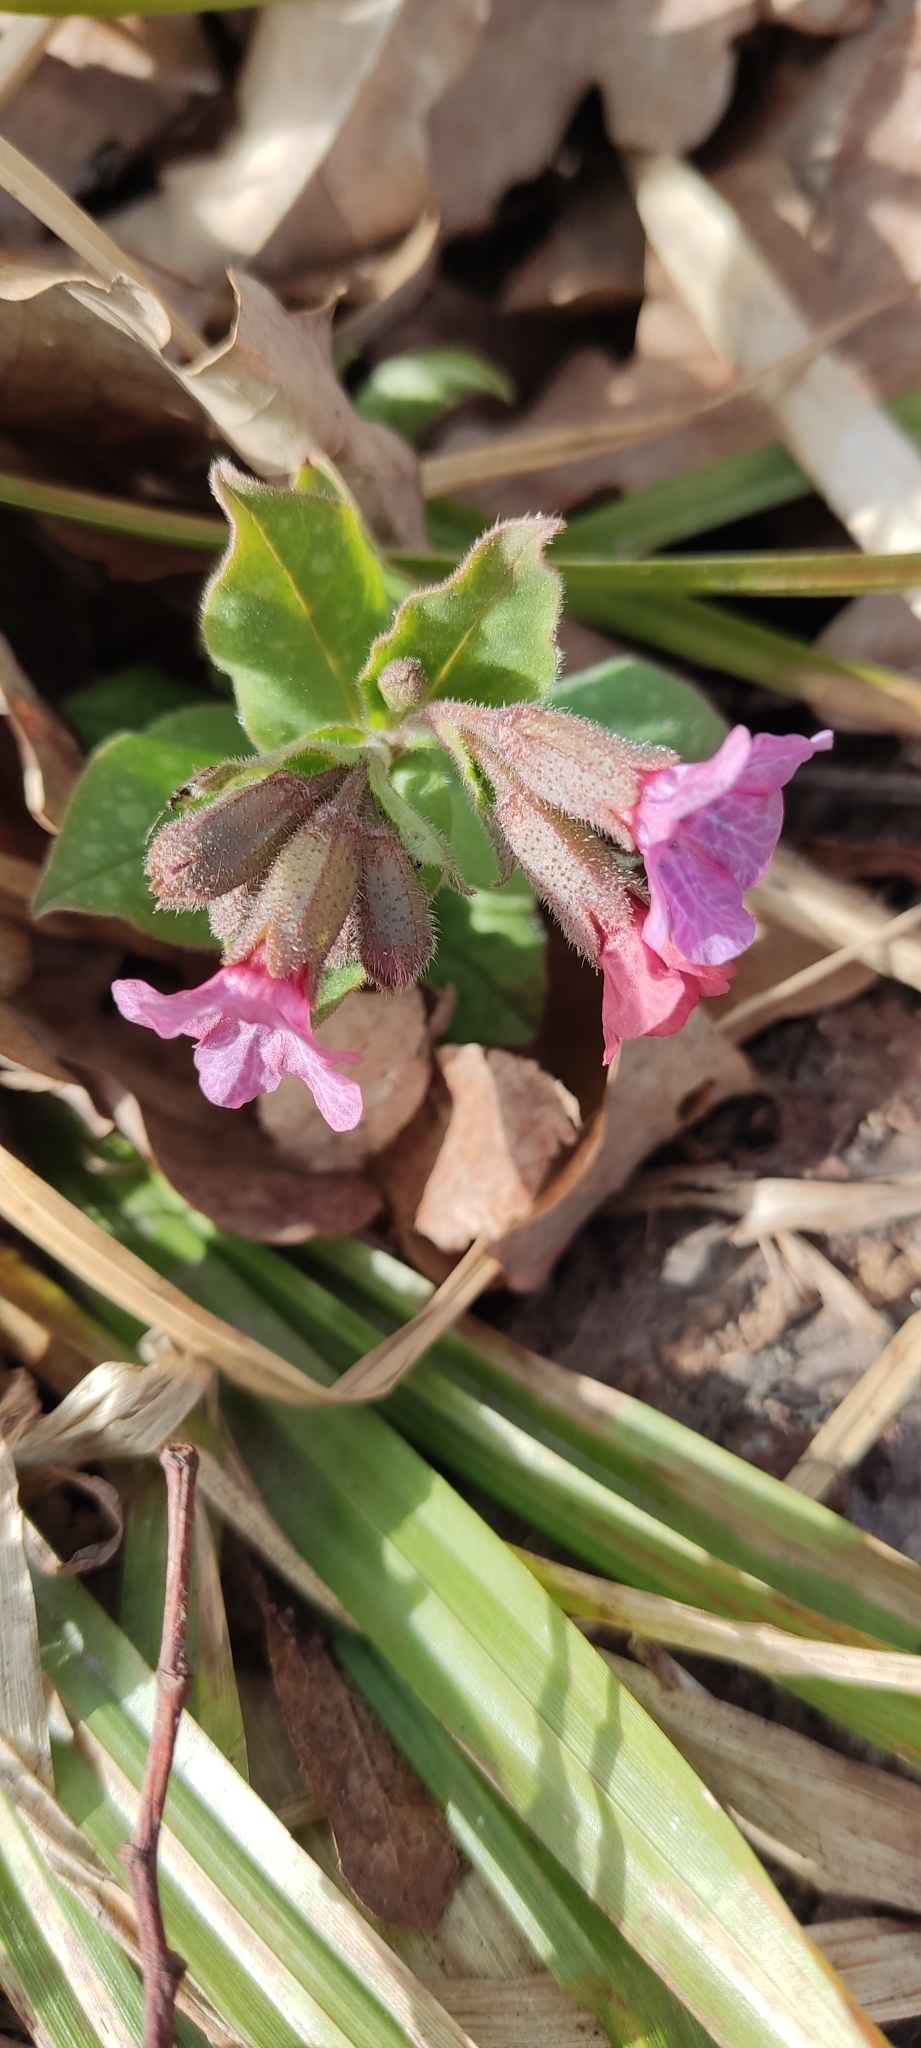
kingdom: Plantae
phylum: Tracheophyta
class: Magnoliopsida
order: Boraginales
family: Boraginaceae
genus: Pulmonaria
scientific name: Pulmonaria obscura
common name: Suffolk lungwort
